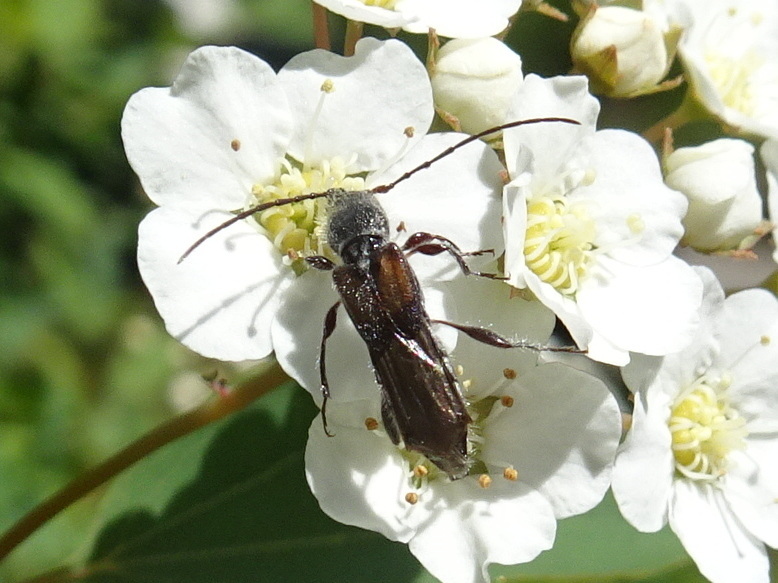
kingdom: Animalia
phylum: Arthropoda
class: Insecta
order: Coleoptera
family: Cerambycidae
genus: Molorchus
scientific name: Molorchus bimaculatus
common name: Bimaculate longhorn beetle
